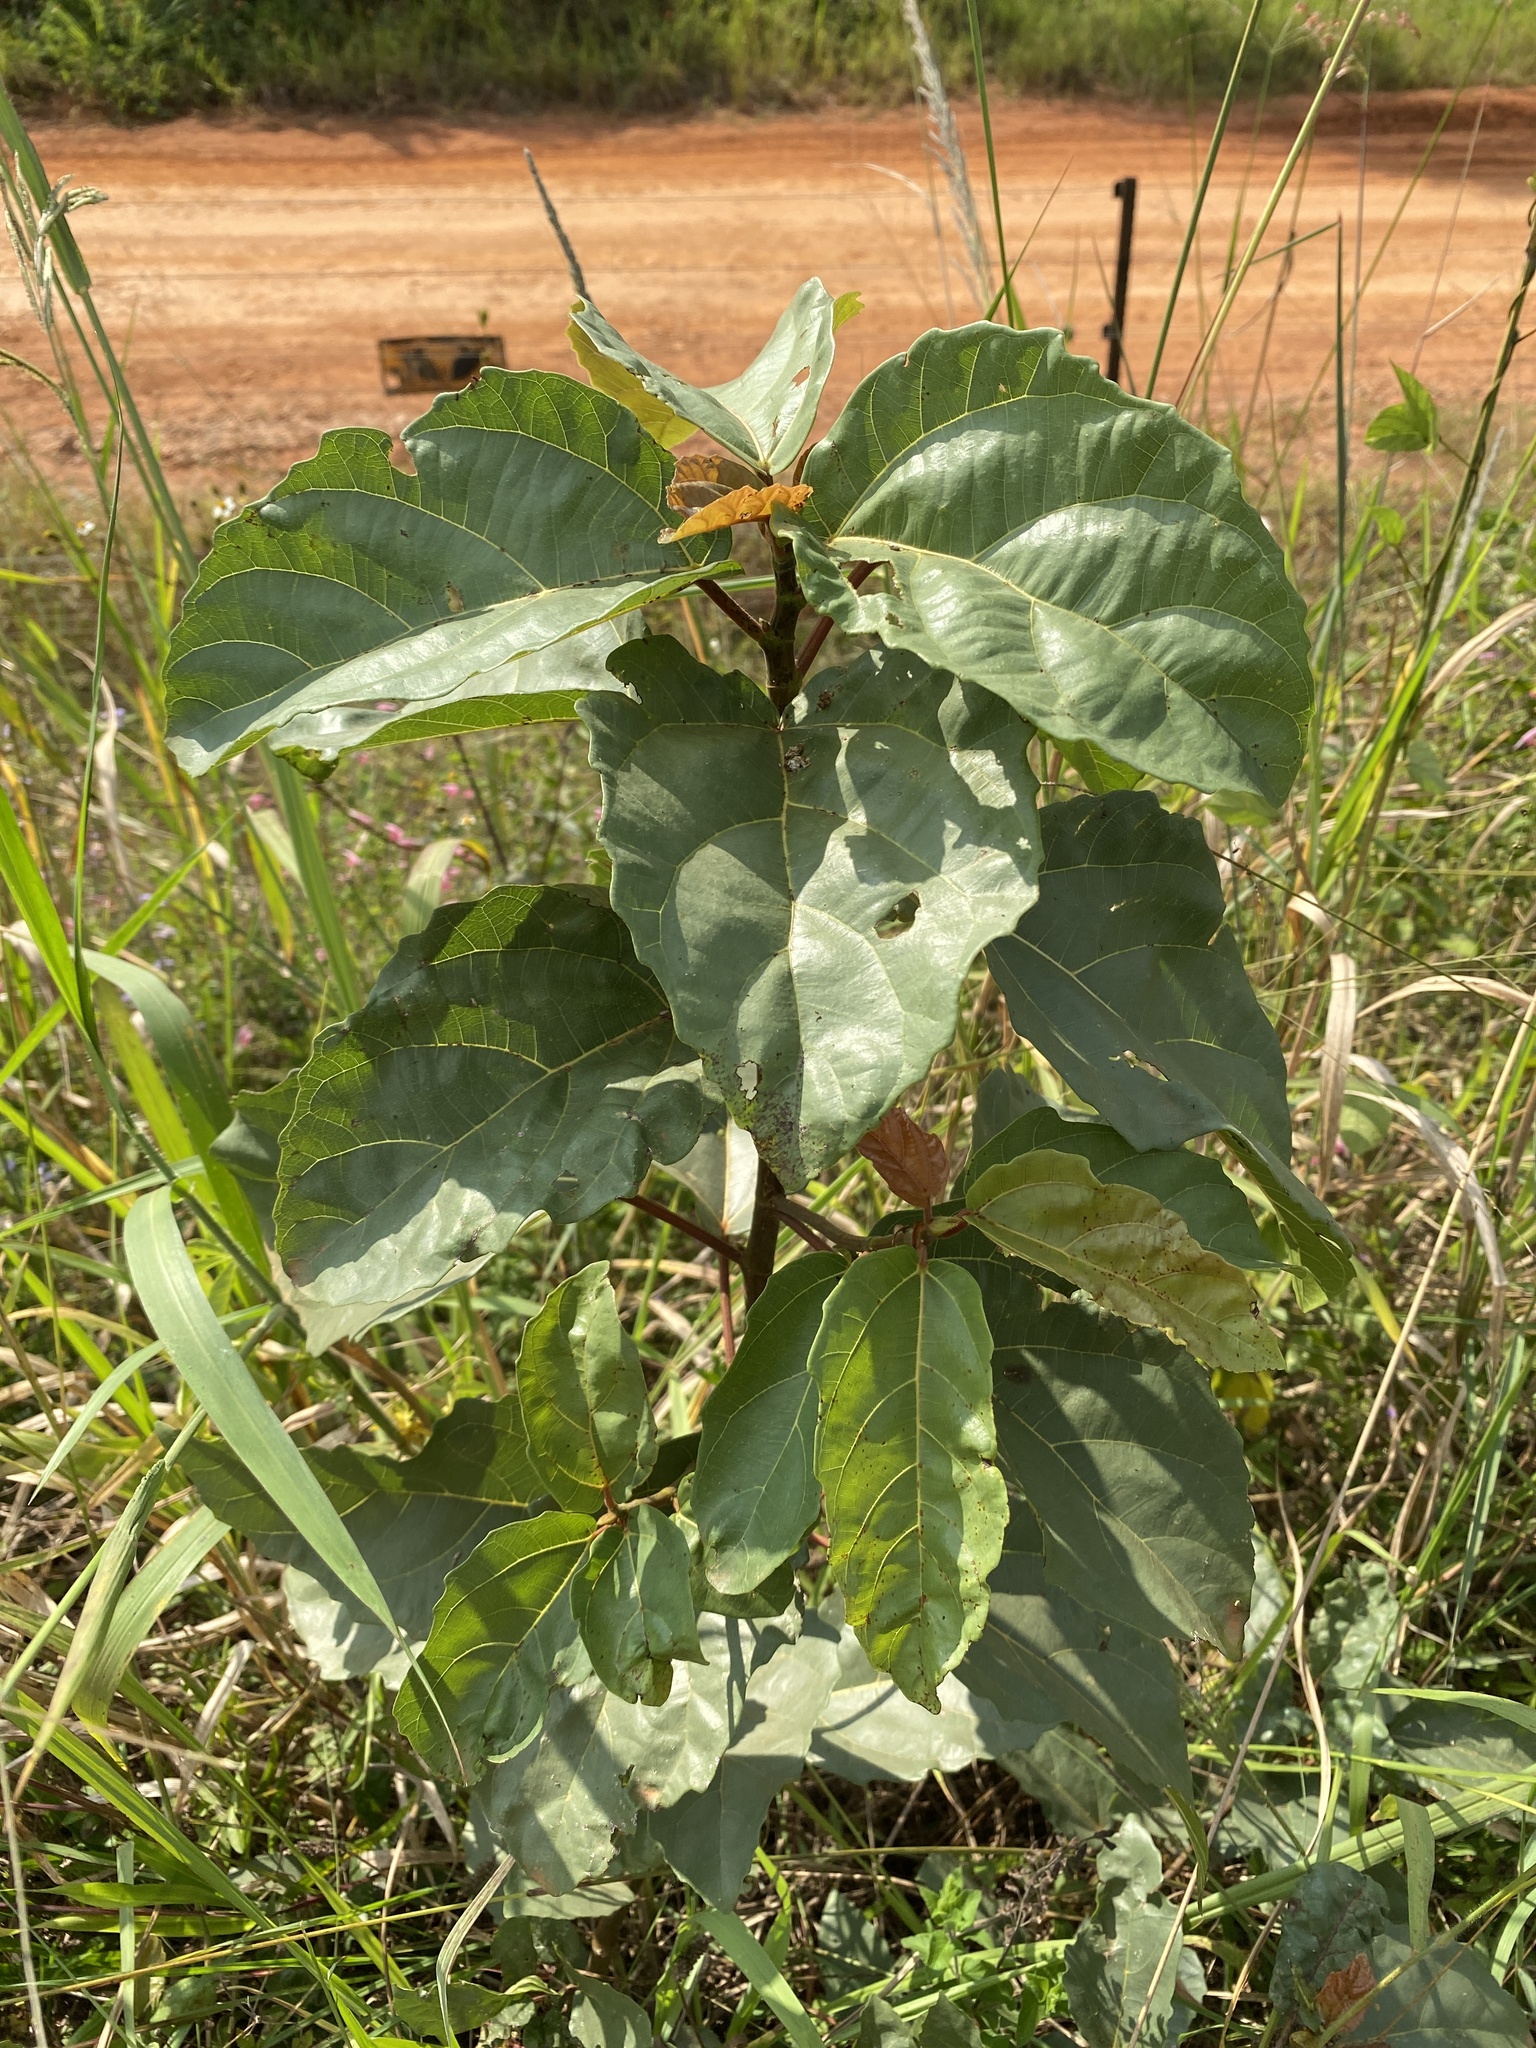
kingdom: Plantae
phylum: Tracheophyta
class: Magnoliopsida
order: Rosales
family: Moraceae
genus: Ficus
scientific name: Ficus sur
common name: Cape fig
